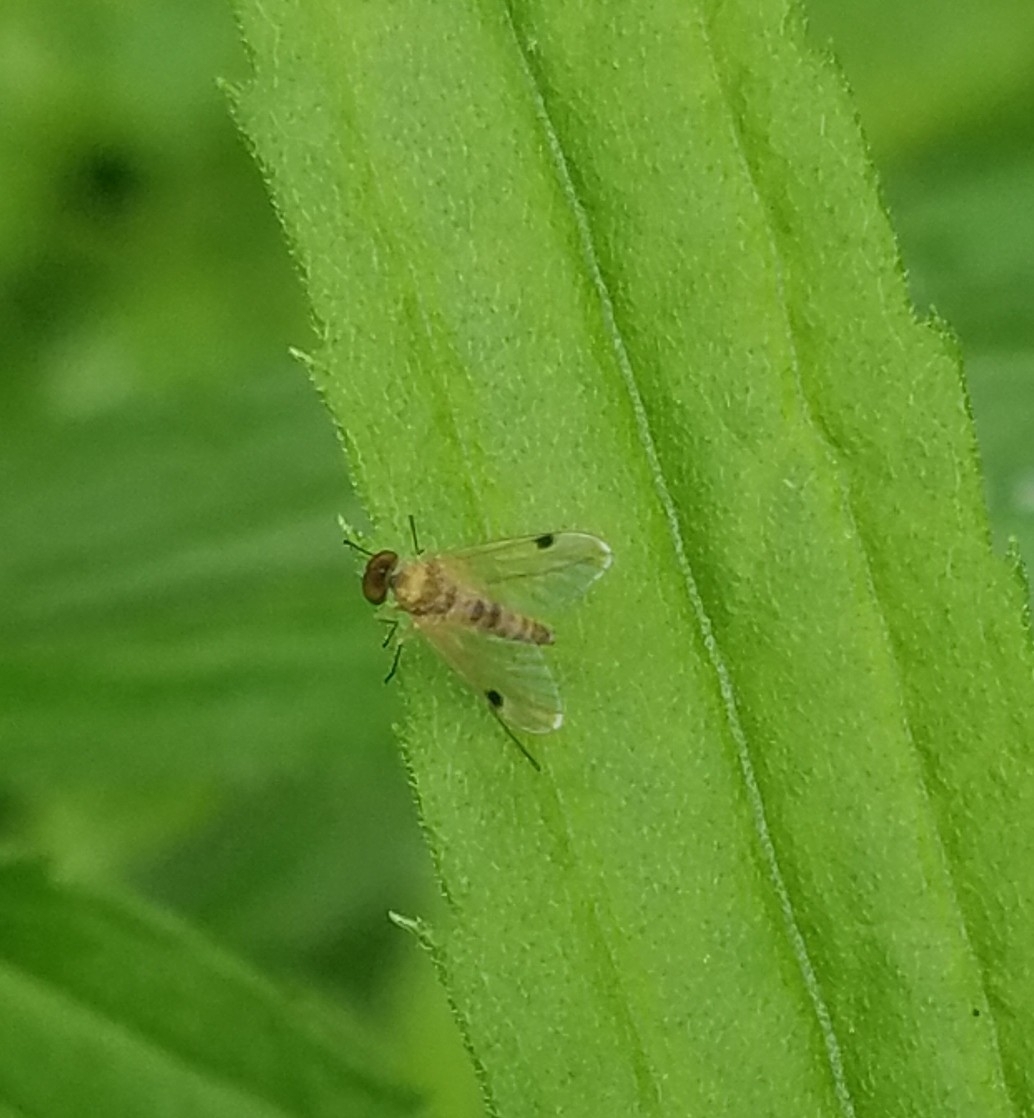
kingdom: Animalia
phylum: Arthropoda
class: Insecta
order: Diptera
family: Rhagionidae
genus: Chrysopilus
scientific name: Chrysopilus modestus
